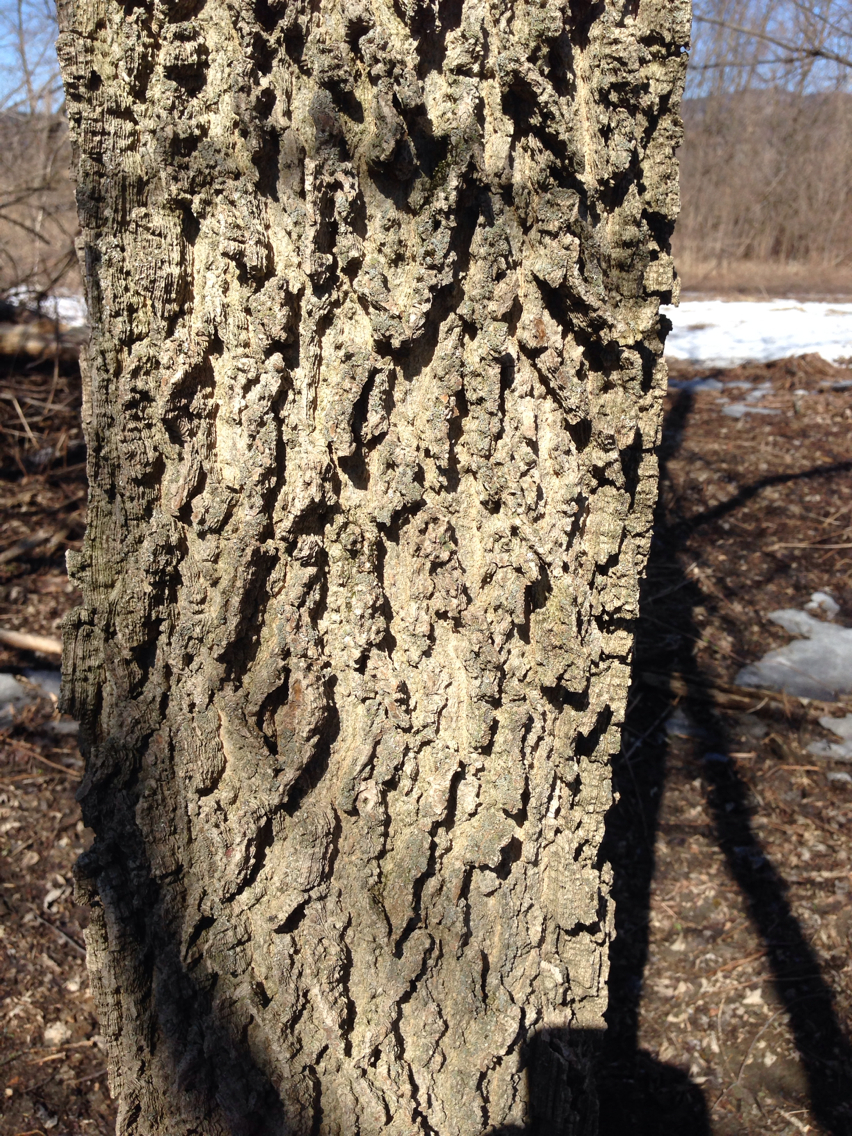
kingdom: Plantae
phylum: Tracheophyta
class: Magnoliopsida
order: Rosales
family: Cannabaceae
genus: Celtis
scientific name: Celtis occidentalis
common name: Common hackberry
